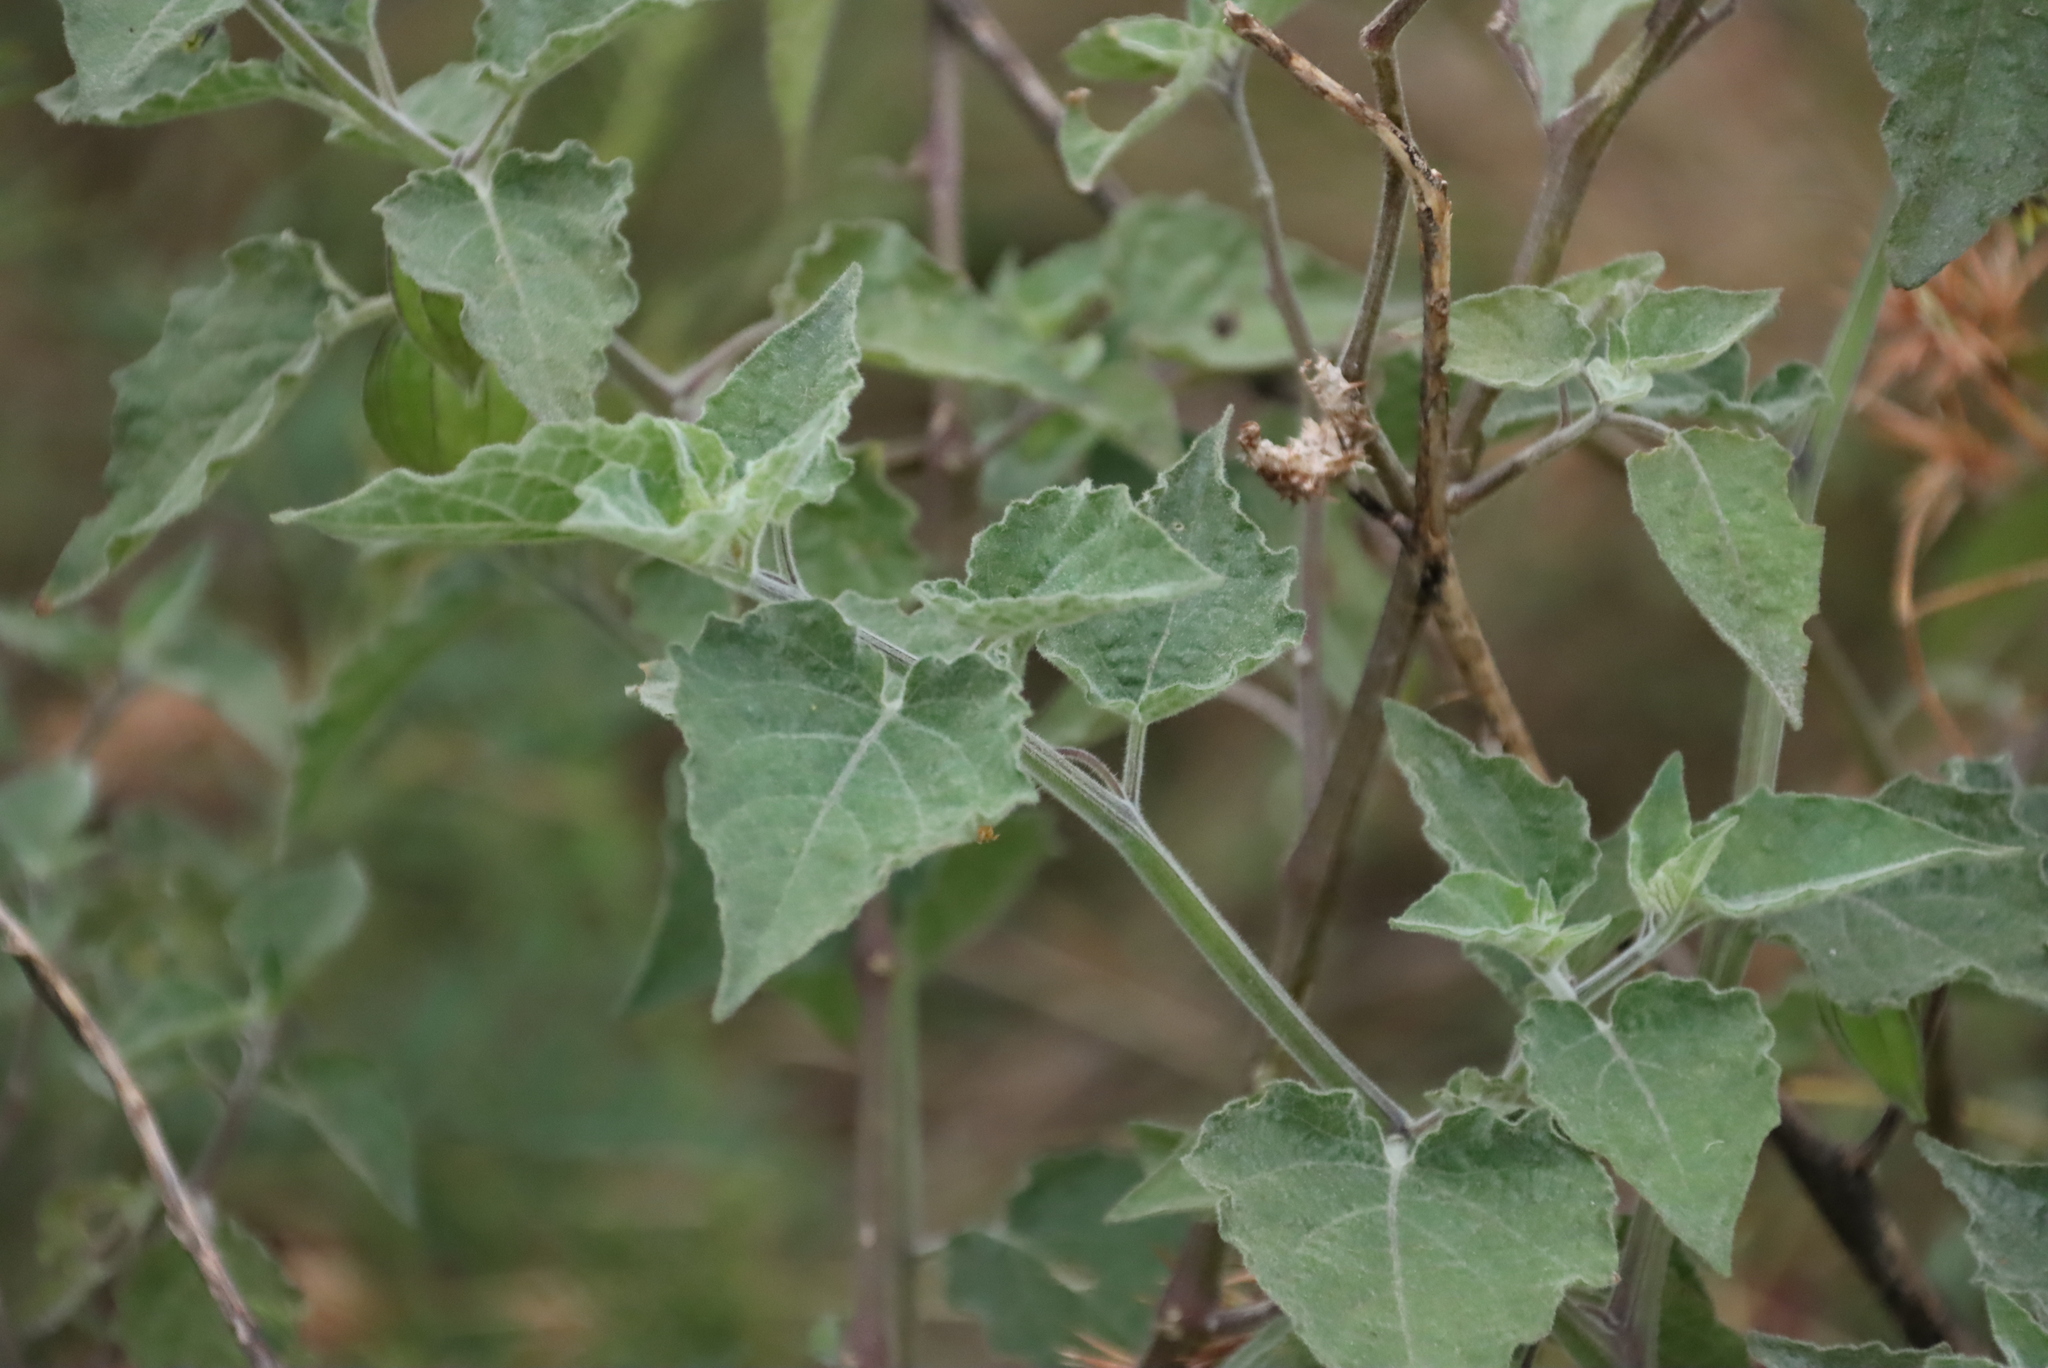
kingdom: Plantae
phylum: Tracheophyta
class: Magnoliopsida
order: Solanales
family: Solanaceae
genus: Physalis
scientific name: Physalis peruviana
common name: Cape-gooseberry
